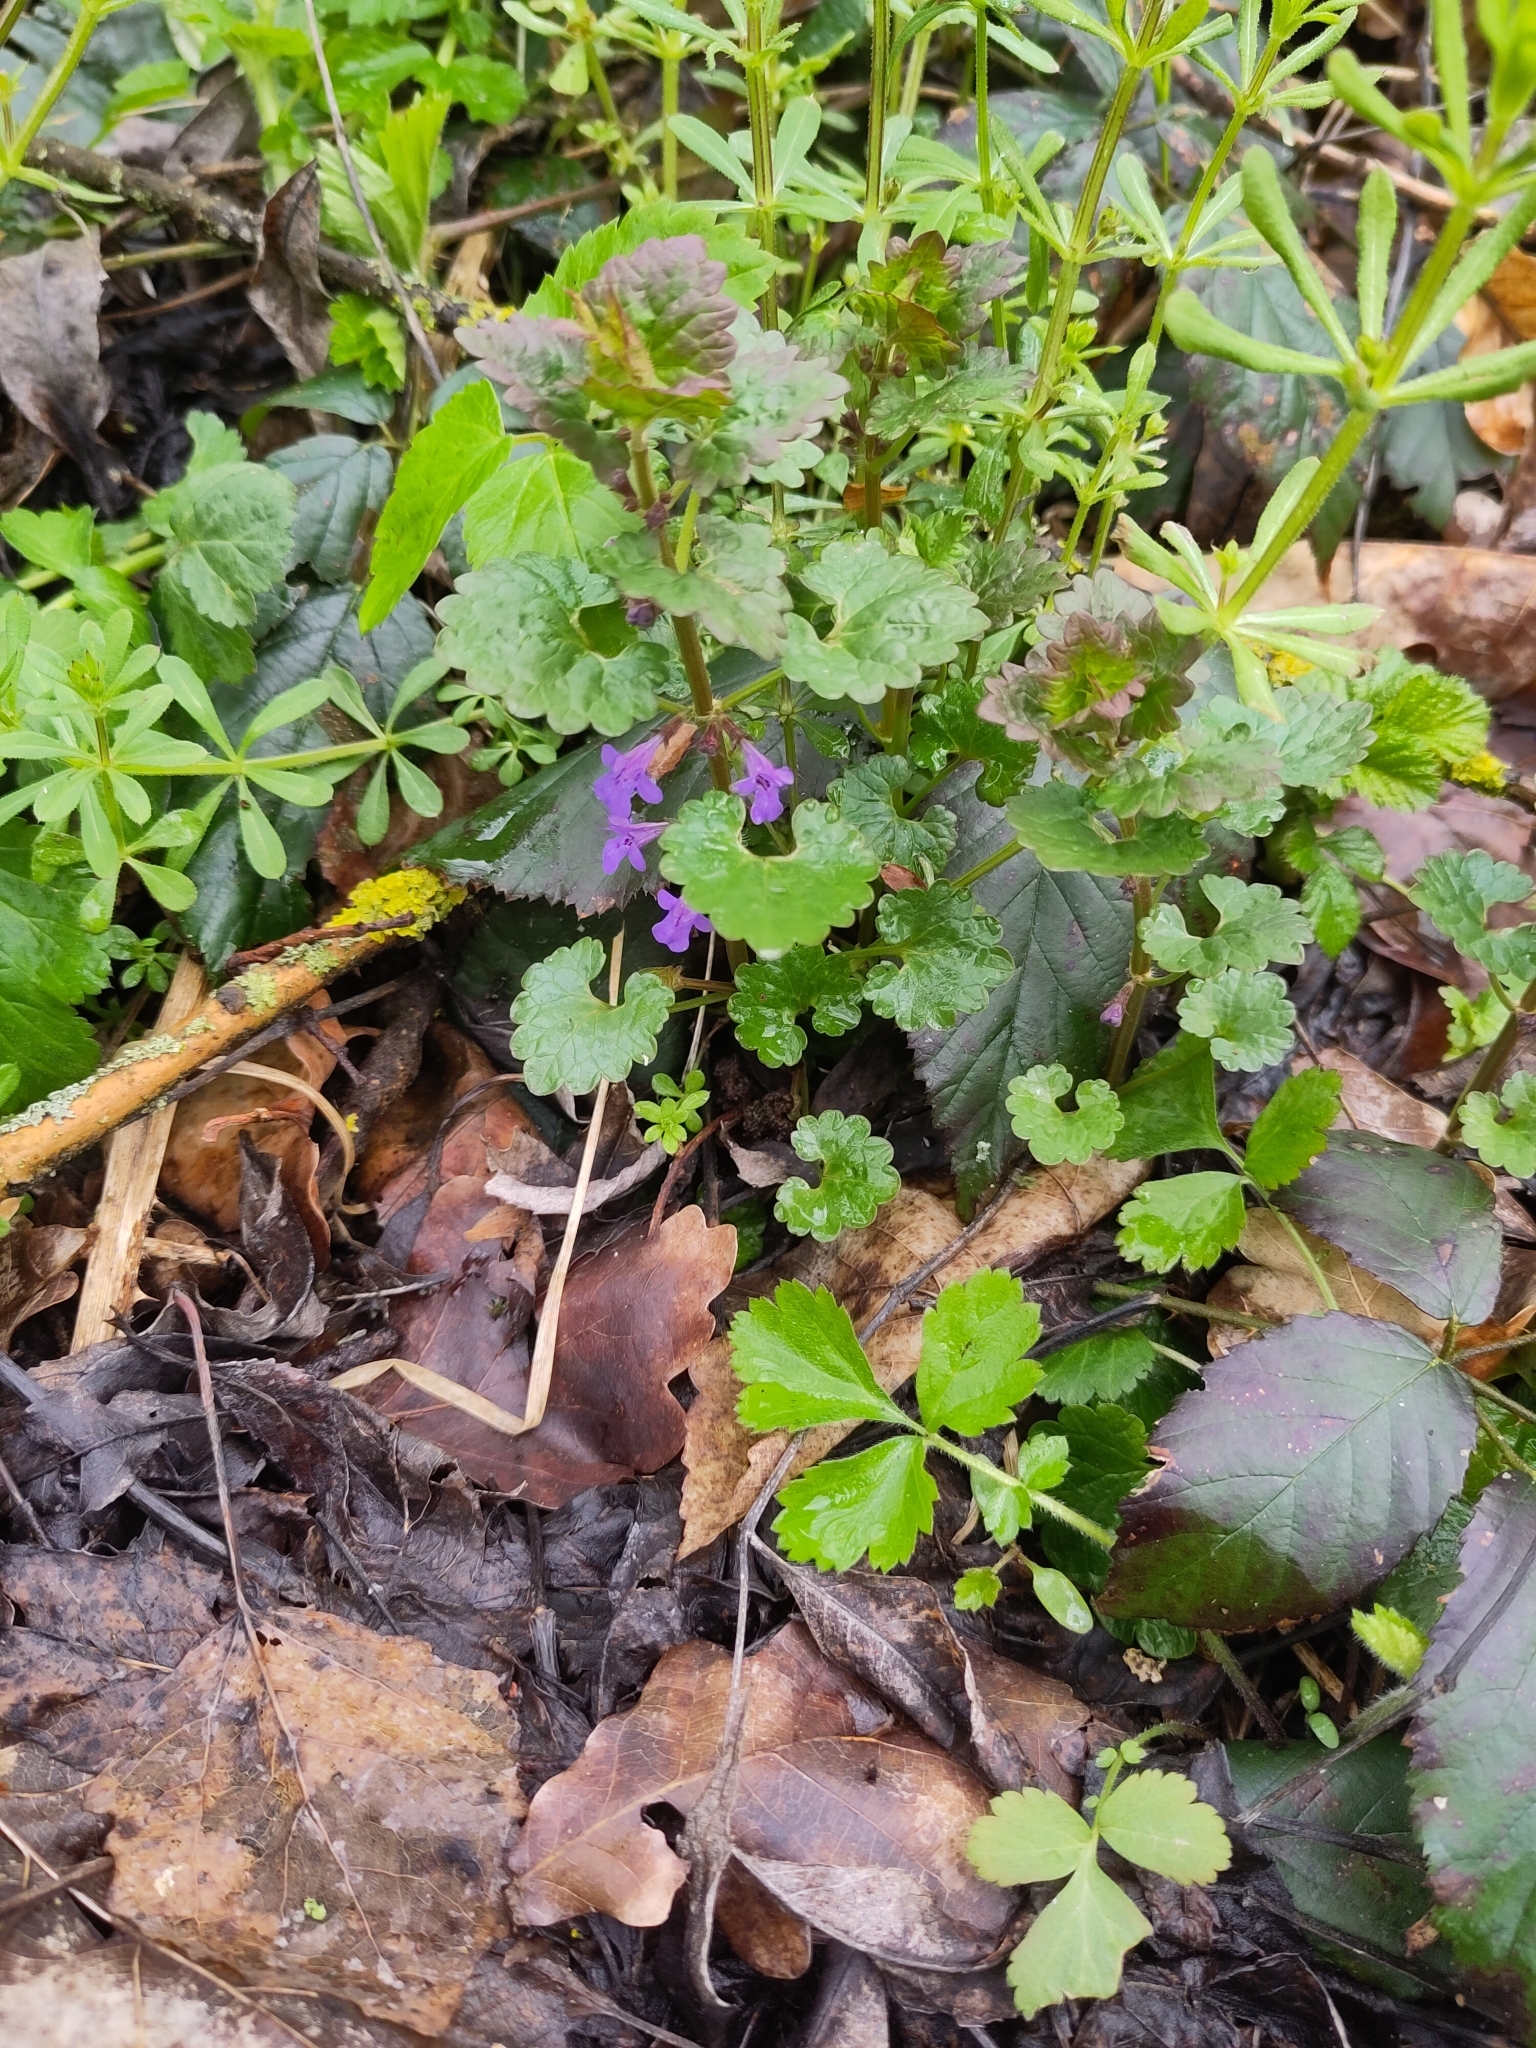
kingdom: Plantae
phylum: Tracheophyta
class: Magnoliopsida
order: Lamiales
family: Lamiaceae
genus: Glechoma
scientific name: Glechoma hederacea
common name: Ground ivy
